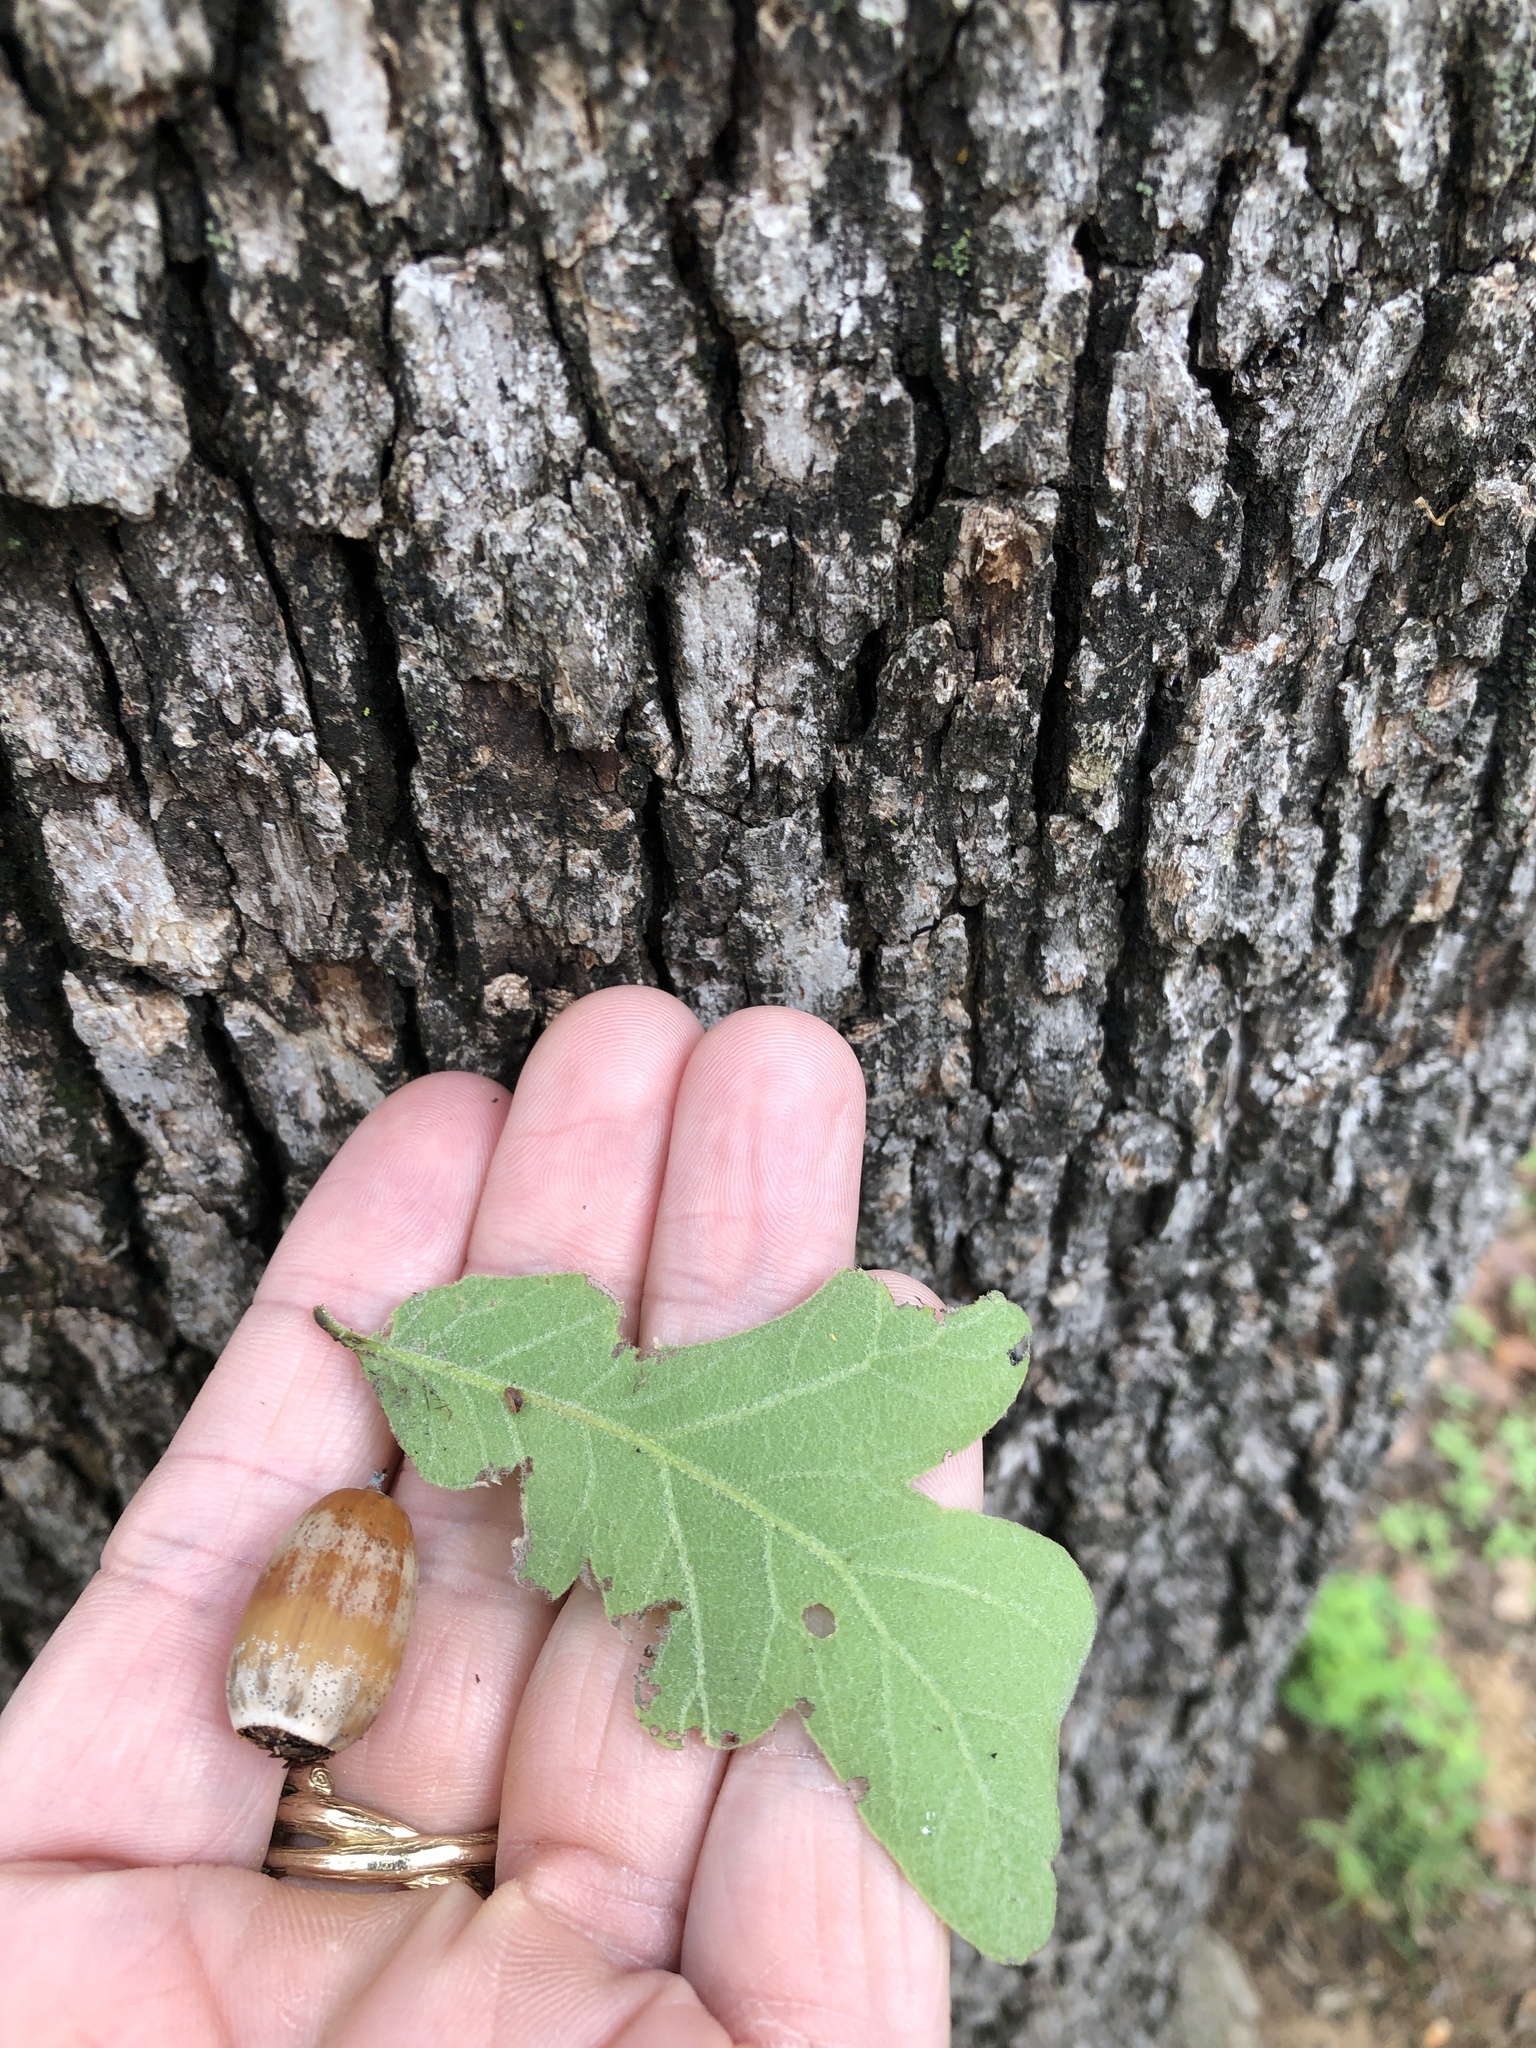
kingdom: Plantae
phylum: Tracheophyta
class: Magnoliopsida
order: Fagales
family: Fagaceae
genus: Quercus
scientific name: Quercus stellata
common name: Post oak
